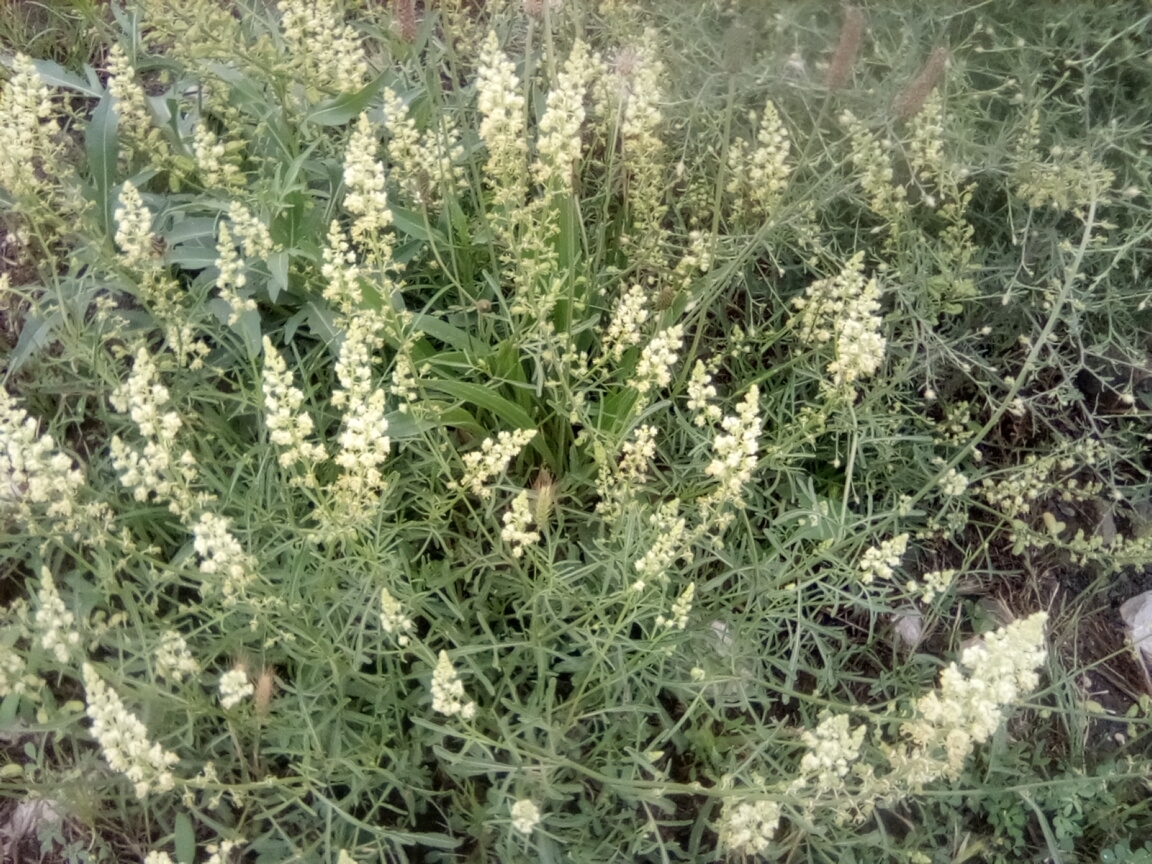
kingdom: Plantae
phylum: Tracheophyta
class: Magnoliopsida
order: Brassicales
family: Resedaceae
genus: Reseda
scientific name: Reseda lutea
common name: Wild mignonette
